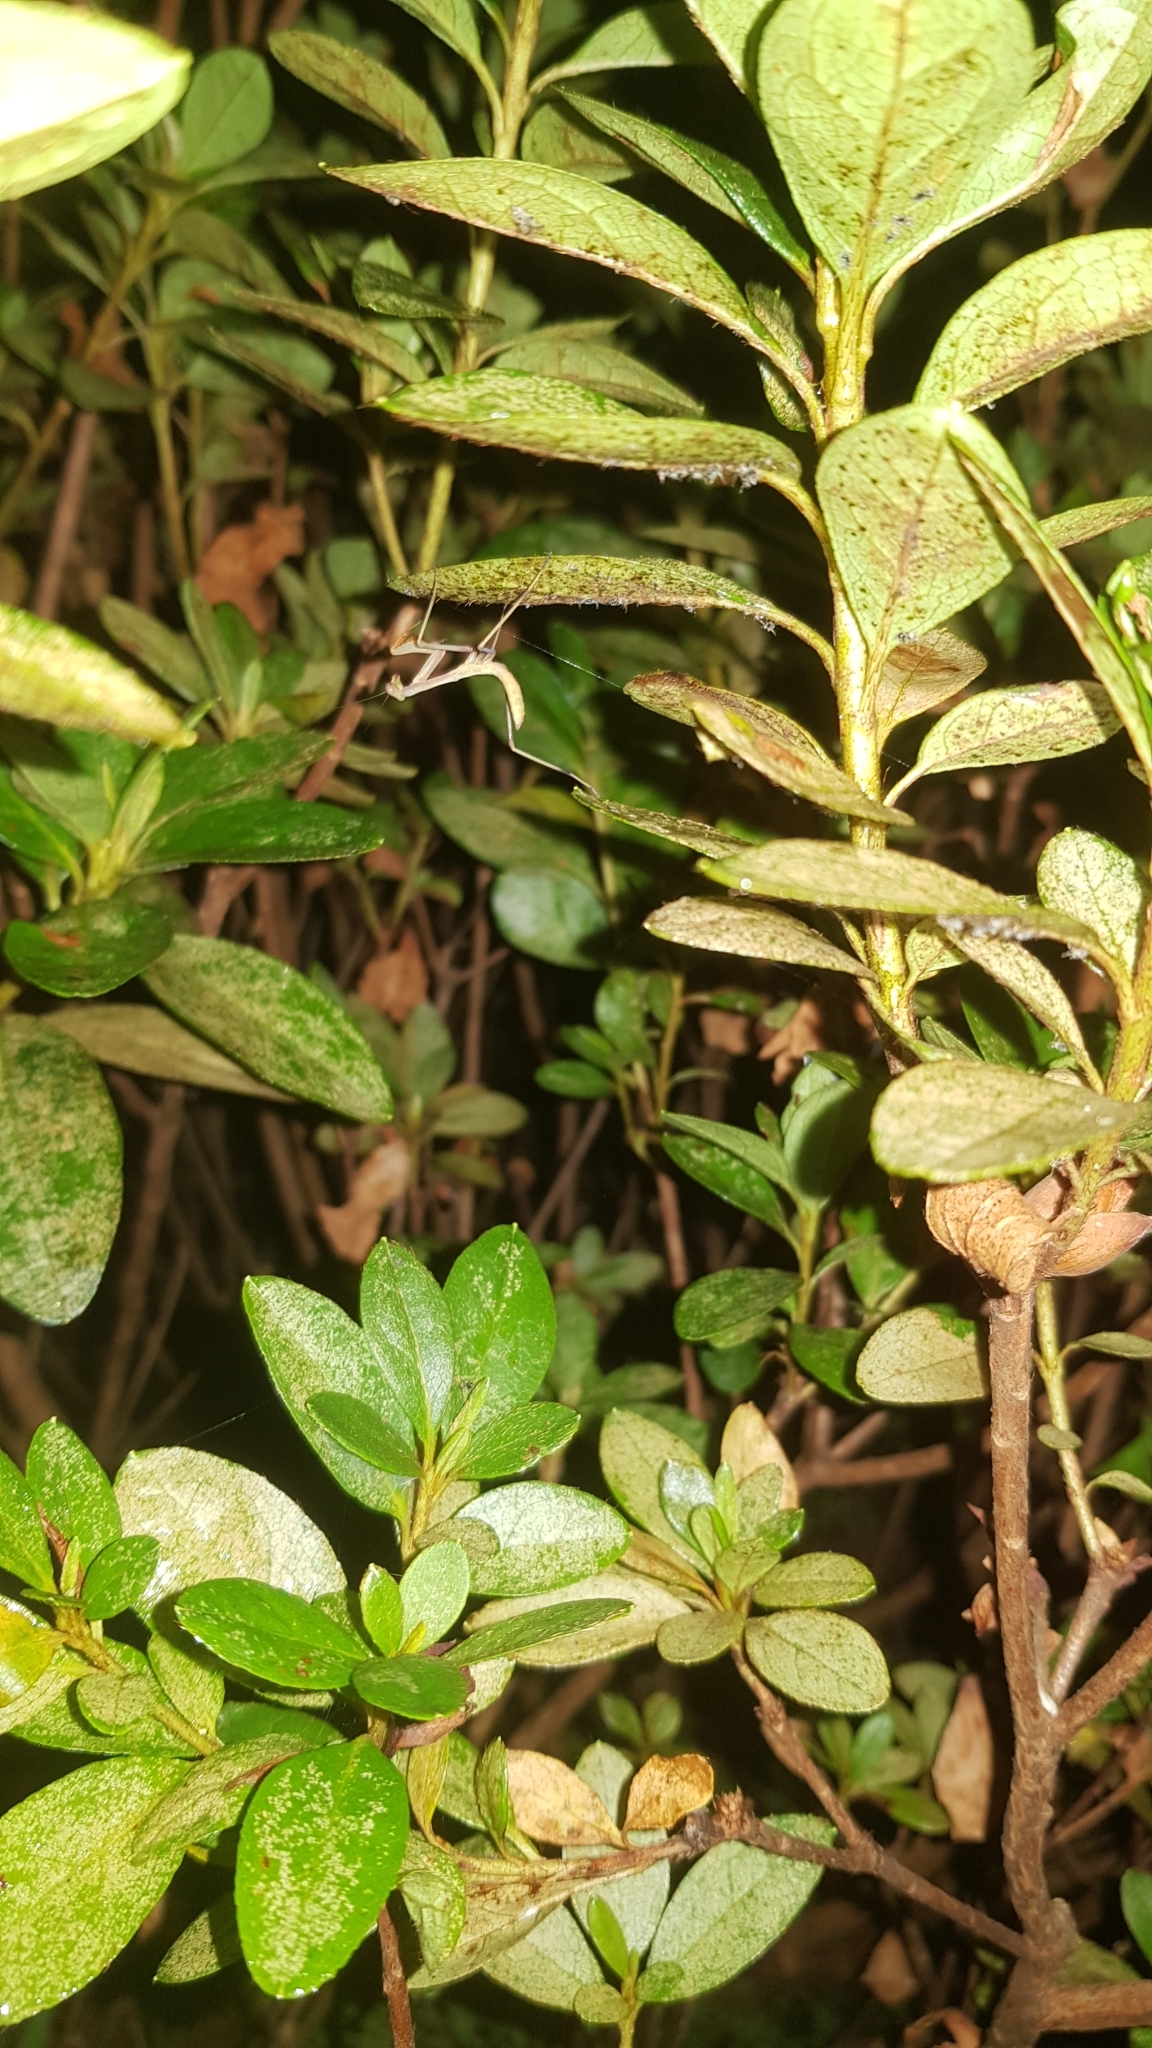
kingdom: Animalia
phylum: Arthropoda
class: Insecta
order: Mantodea
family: Mantidae
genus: Pseudomantis
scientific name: Pseudomantis albofimbriata
